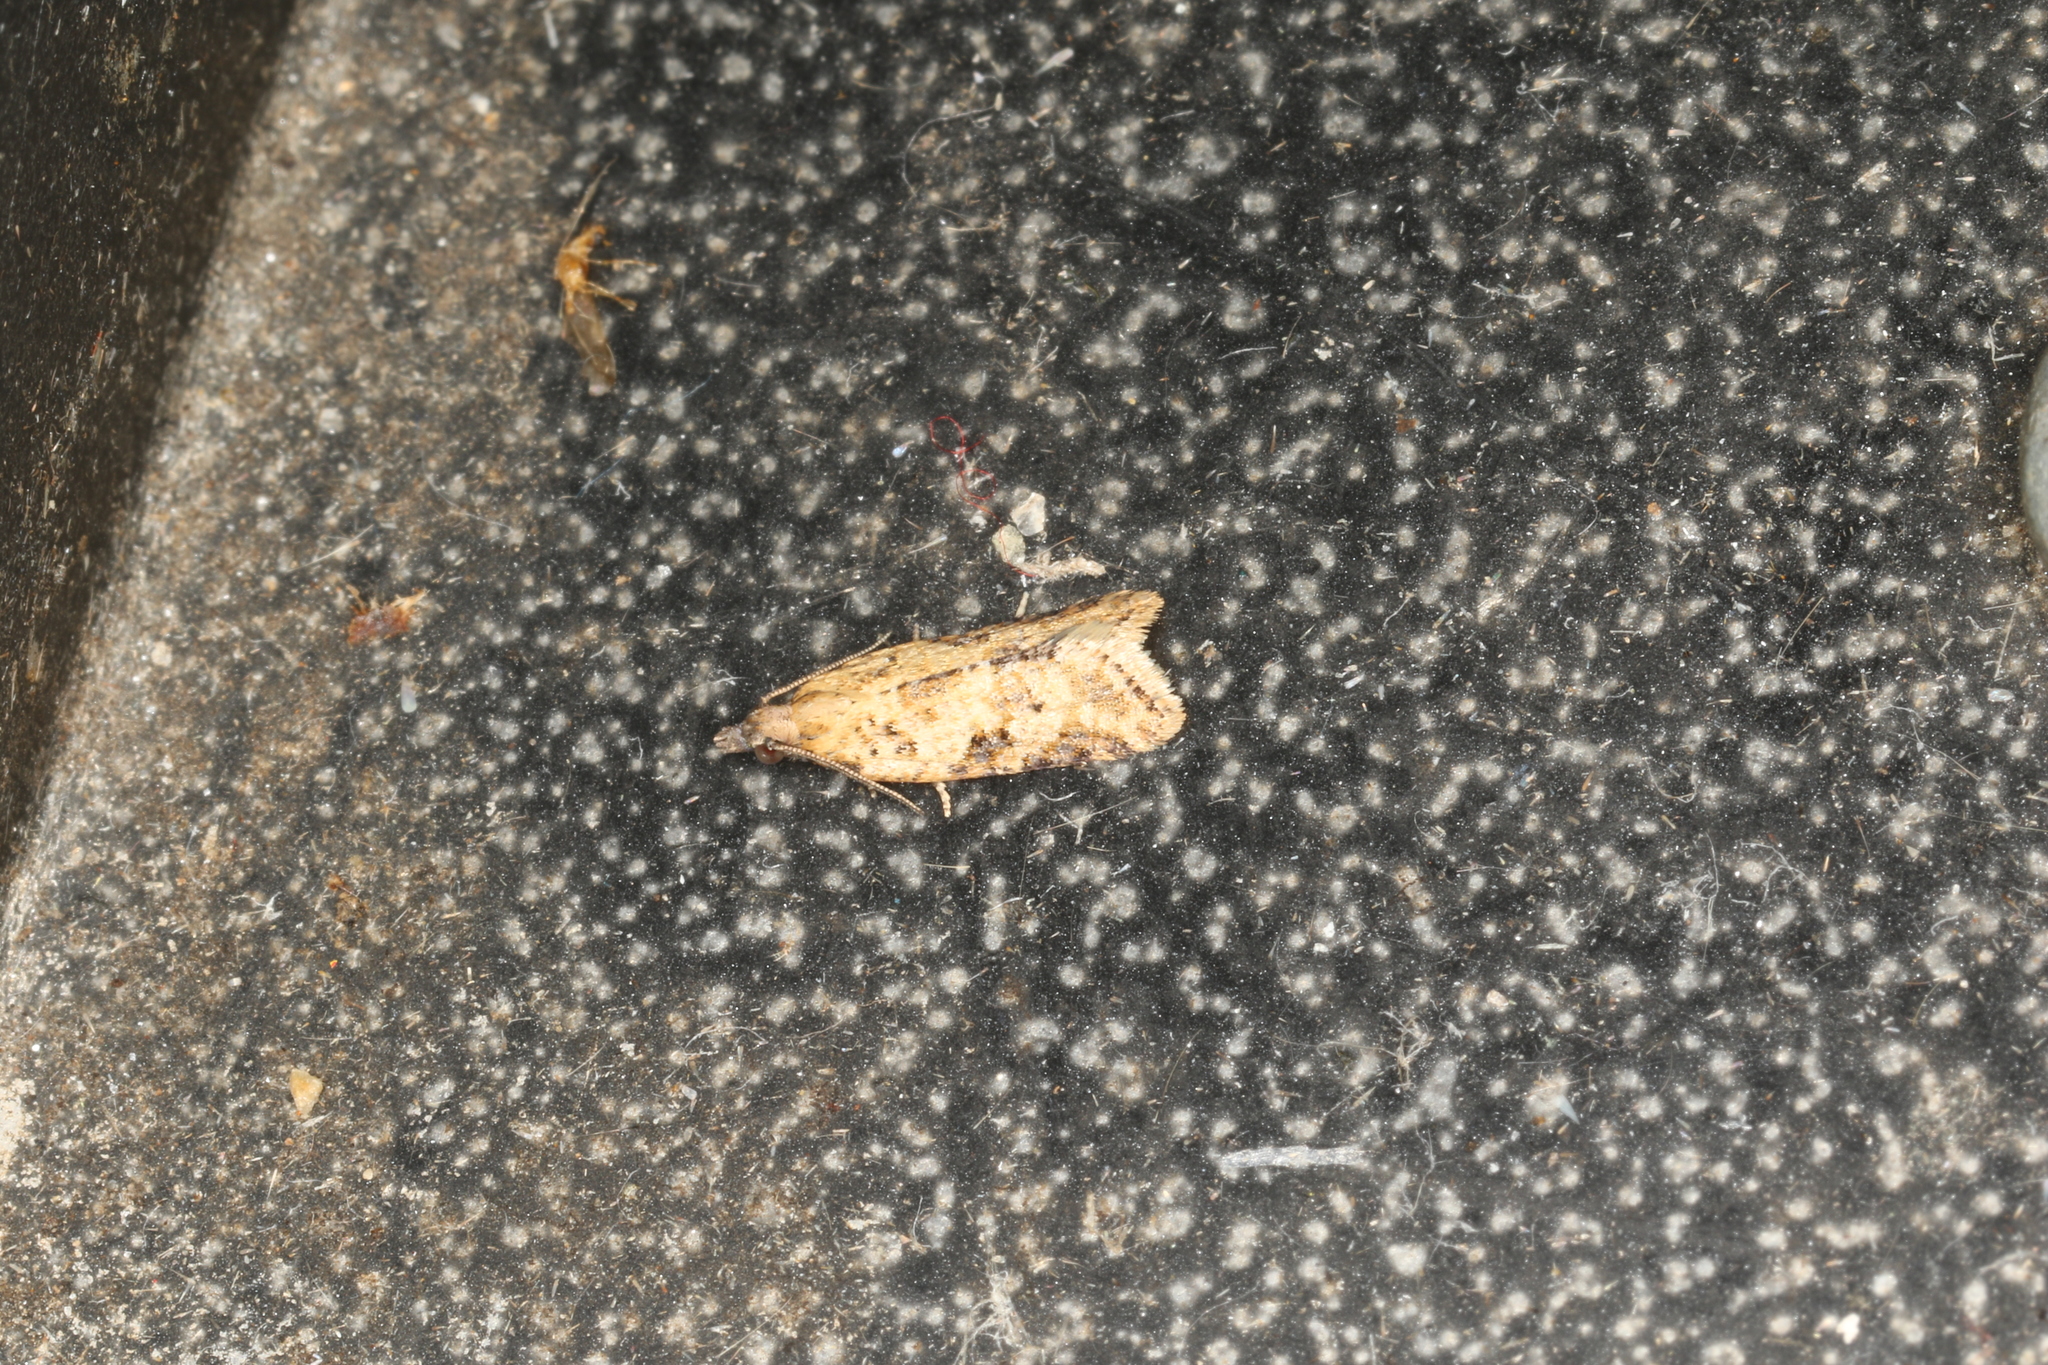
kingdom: Animalia
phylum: Arthropoda
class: Insecta
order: Lepidoptera
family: Tortricidae
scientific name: Tortricidae
